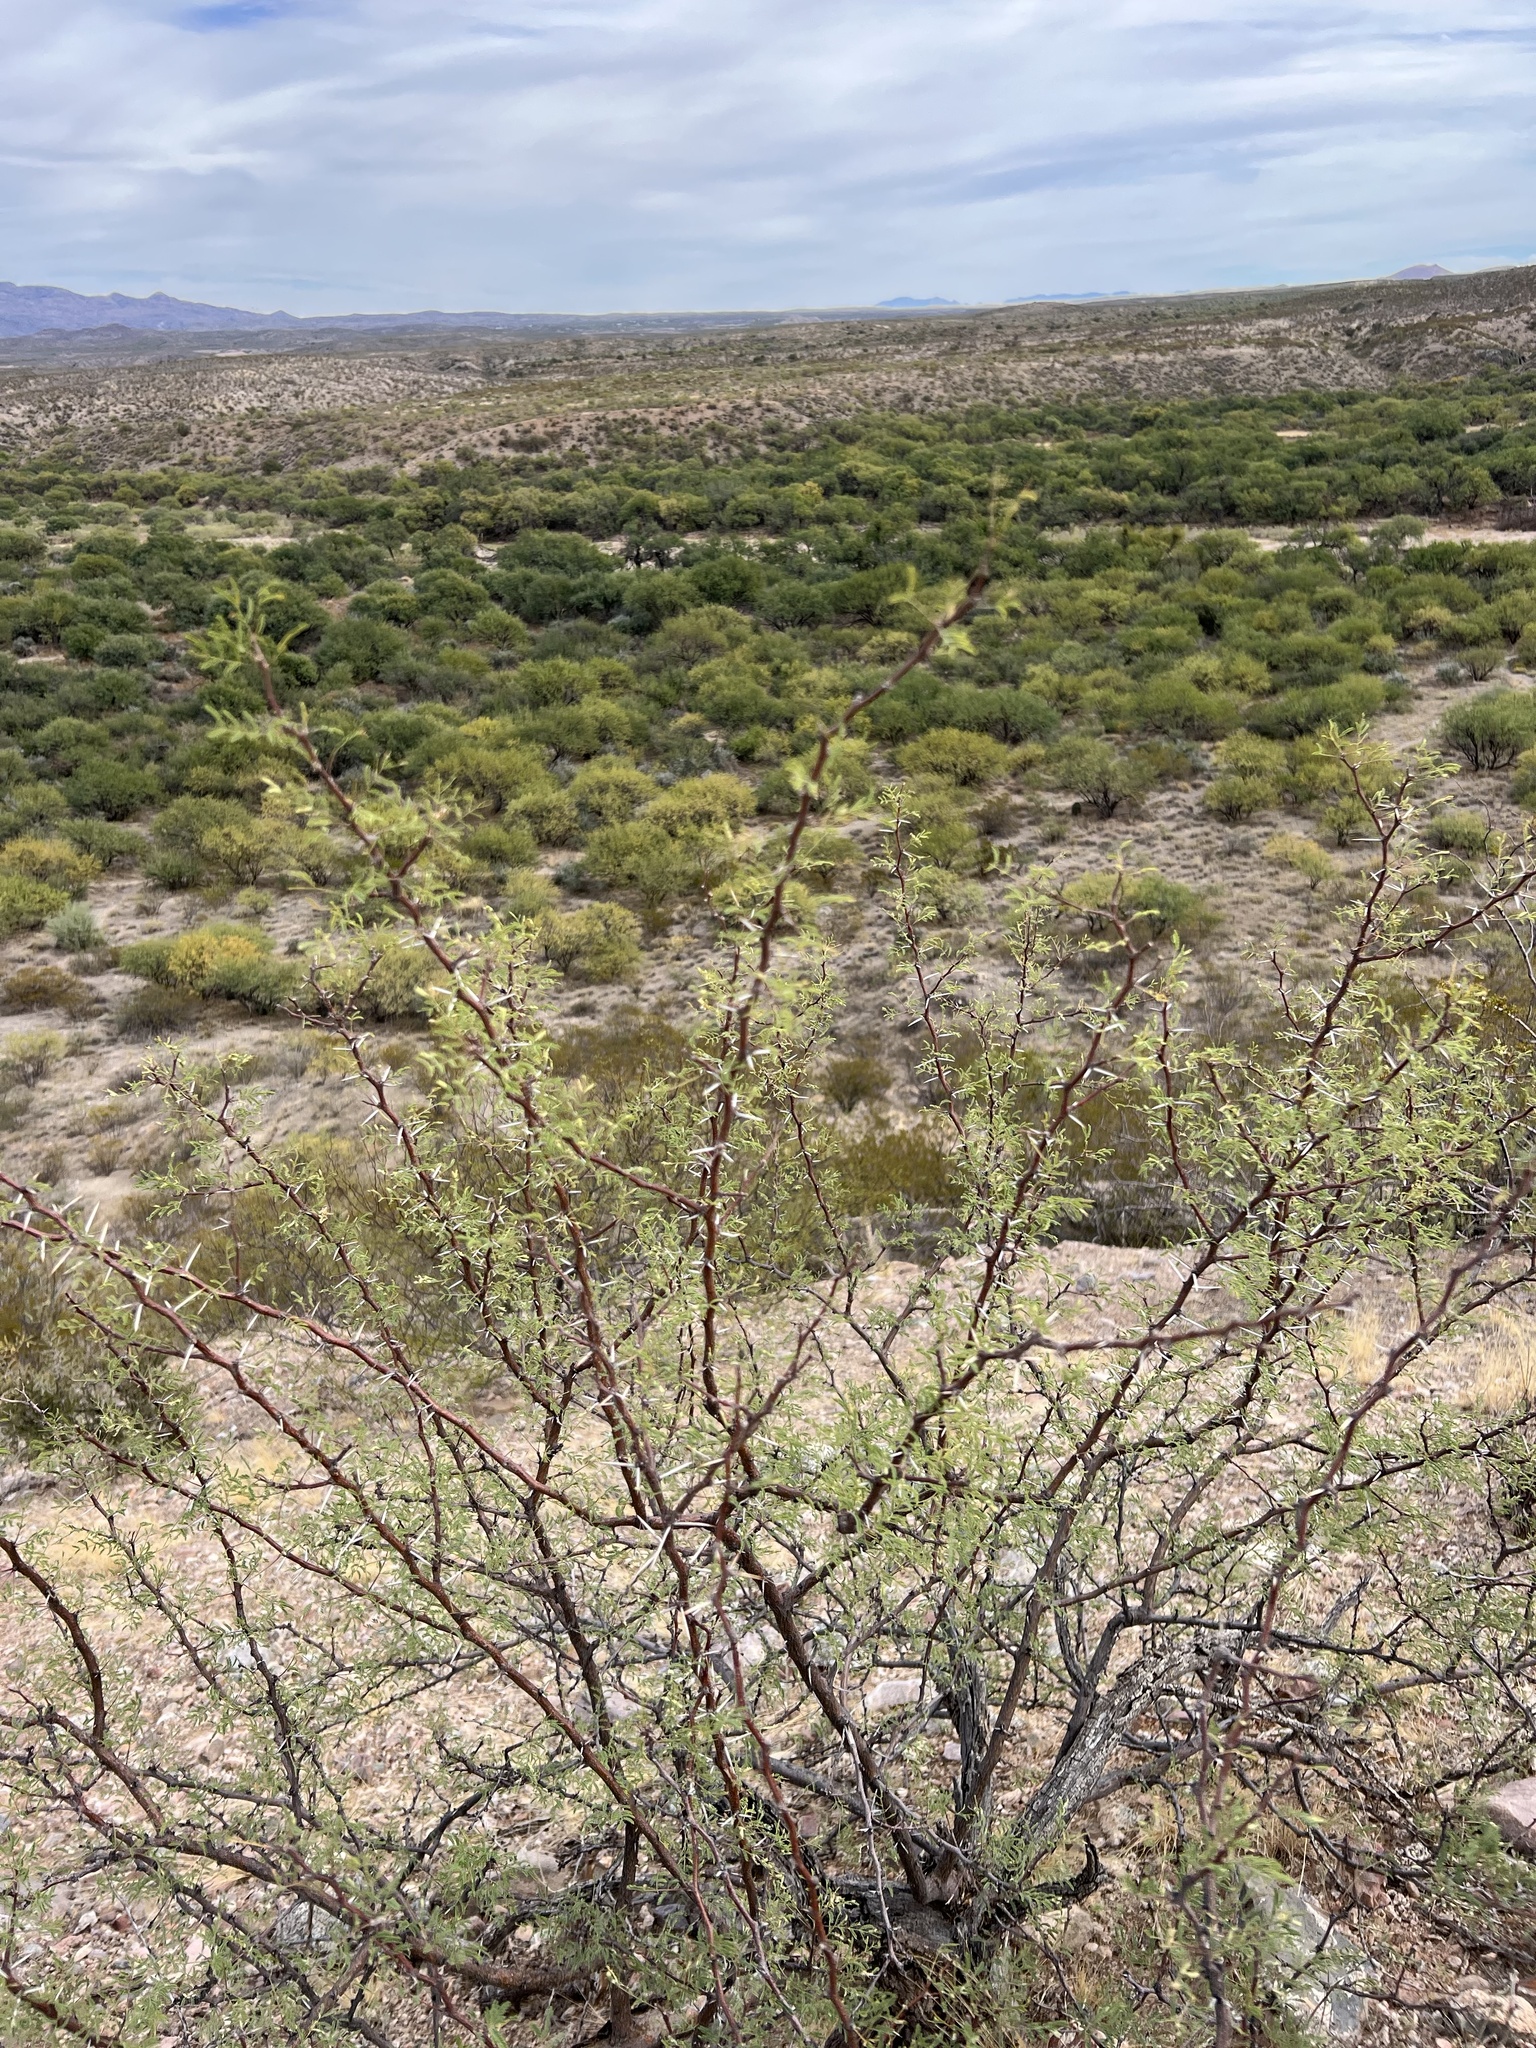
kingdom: Plantae
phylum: Tracheophyta
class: Magnoliopsida
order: Fabales
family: Fabaceae
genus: Vachellia
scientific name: Vachellia constricta
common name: Mescat acacia
